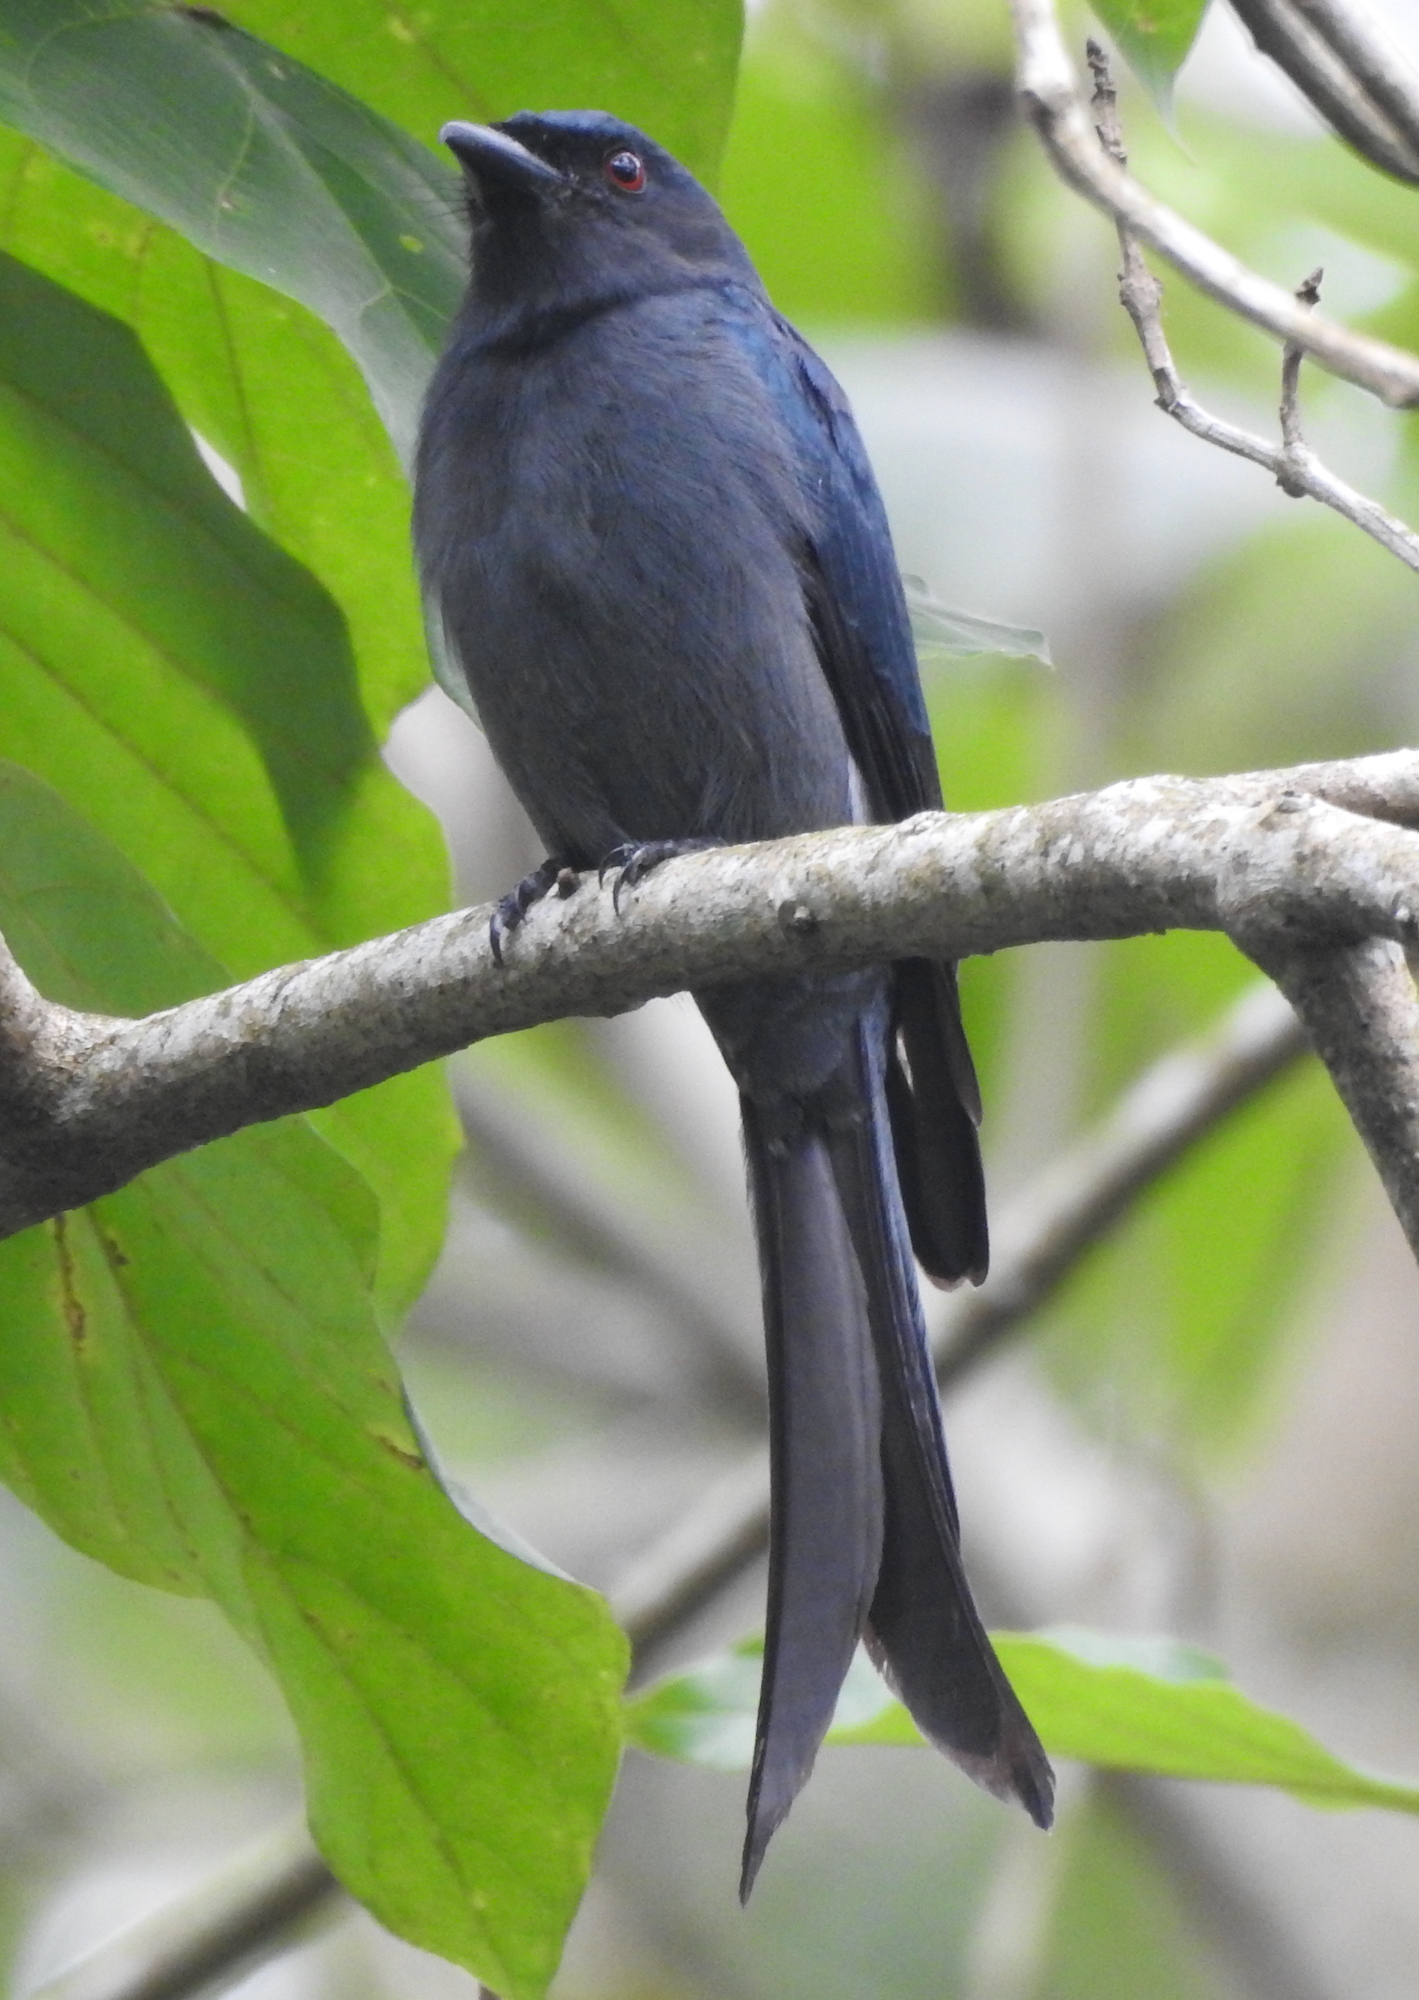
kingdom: Animalia
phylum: Chordata
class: Aves
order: Passeriformes
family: Dicruridae
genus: Dicrurus
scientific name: Dicrurus leucophaeus
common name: Ashy drongo
